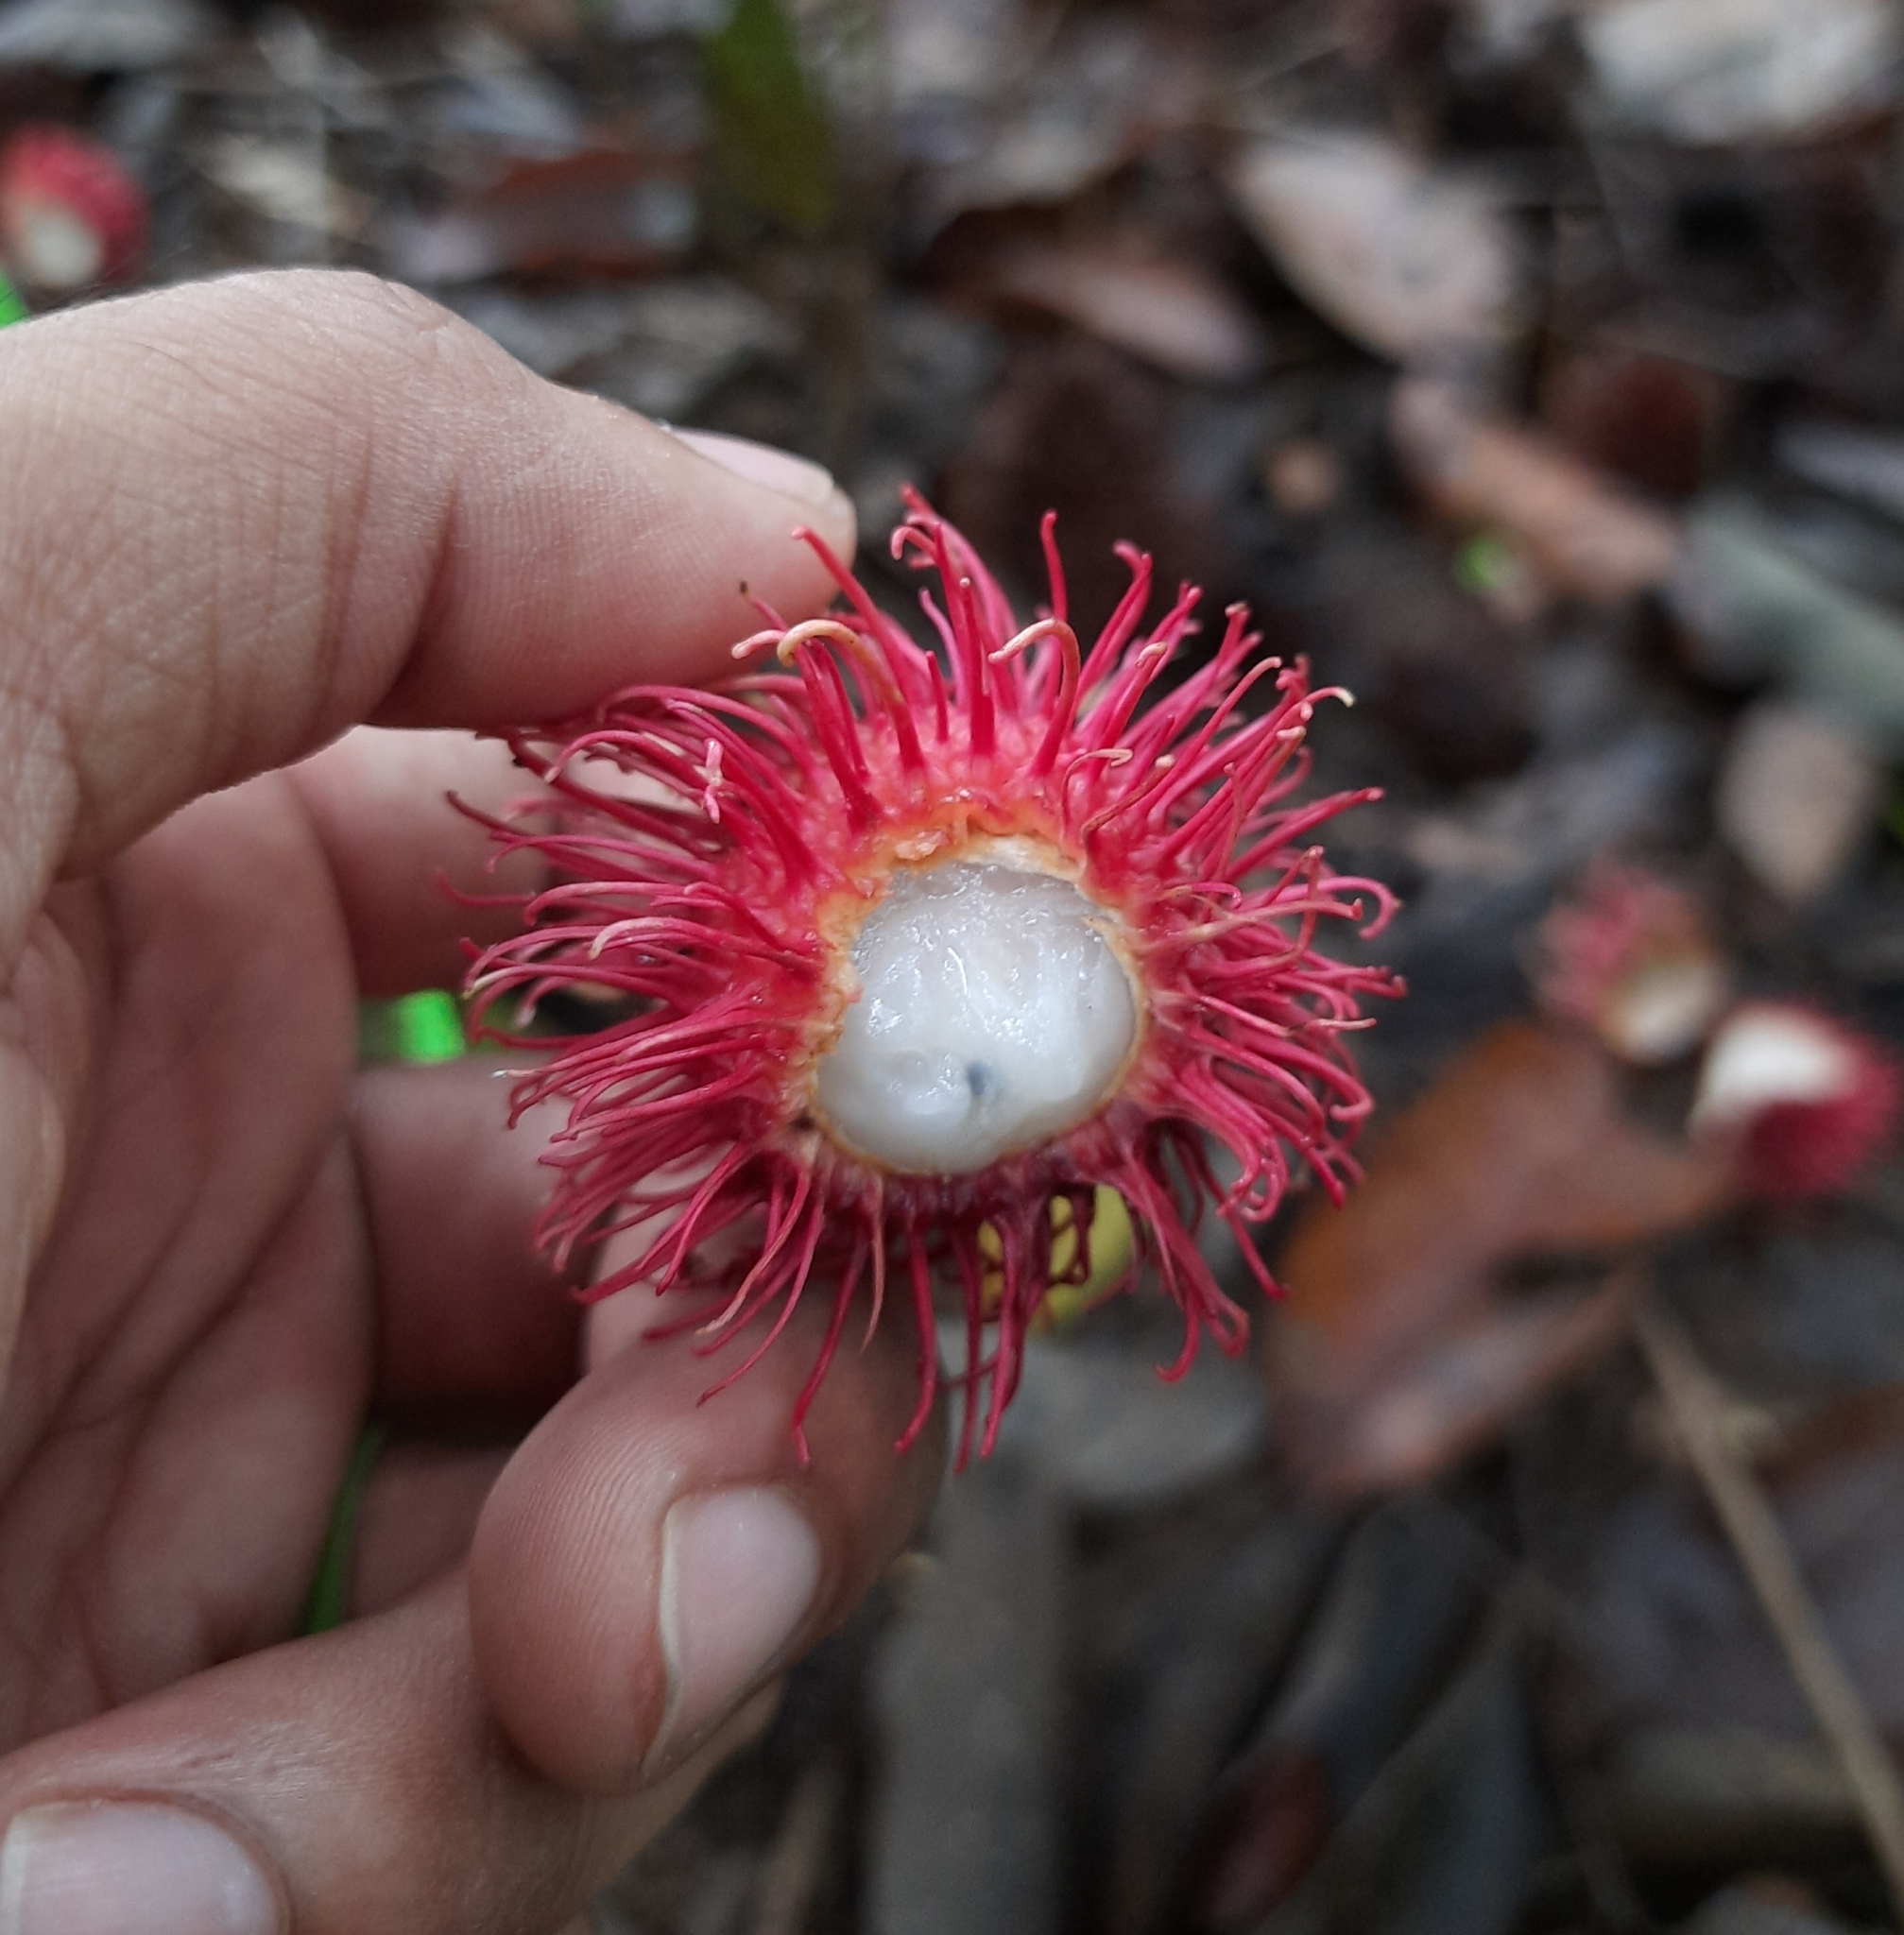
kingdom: Plantae
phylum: Tracheophyta
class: Magnoliopsida
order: Sapindales
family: Sapindaceae
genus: Nephelium
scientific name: Nephelium lappaceum
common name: Rambutan
